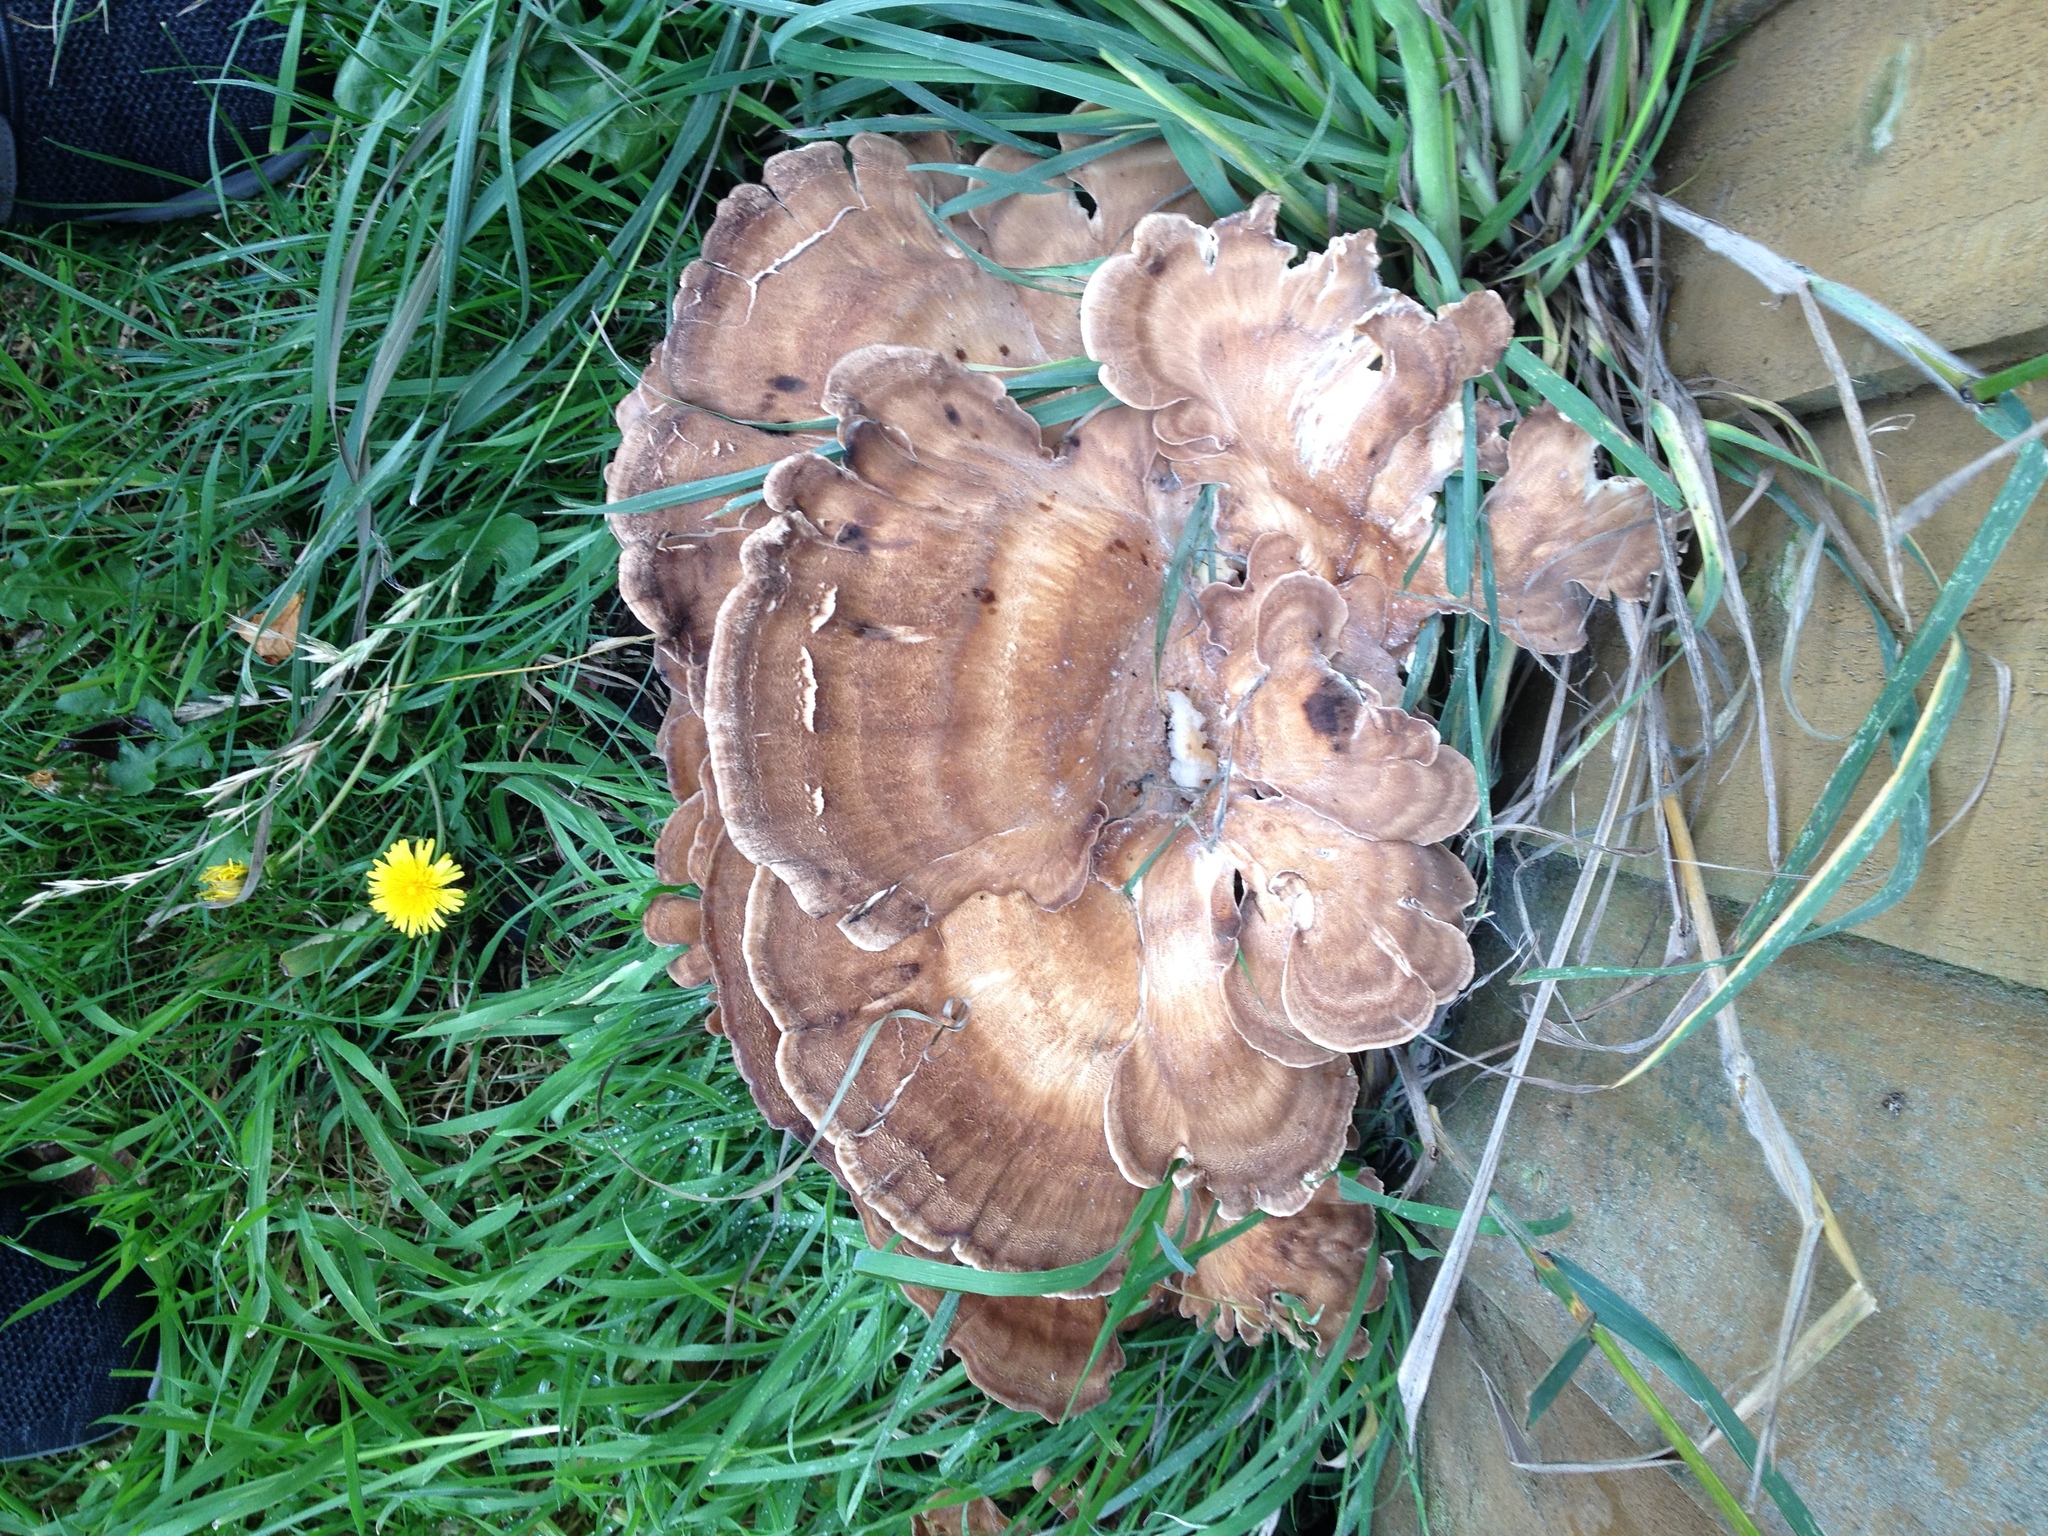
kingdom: Fungi
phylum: Basidiomycota
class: Agaricomycetes
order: Polyporales
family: Meripilaceae
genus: Meripilus
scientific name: Meripilus giganteus
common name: Giant polypore
